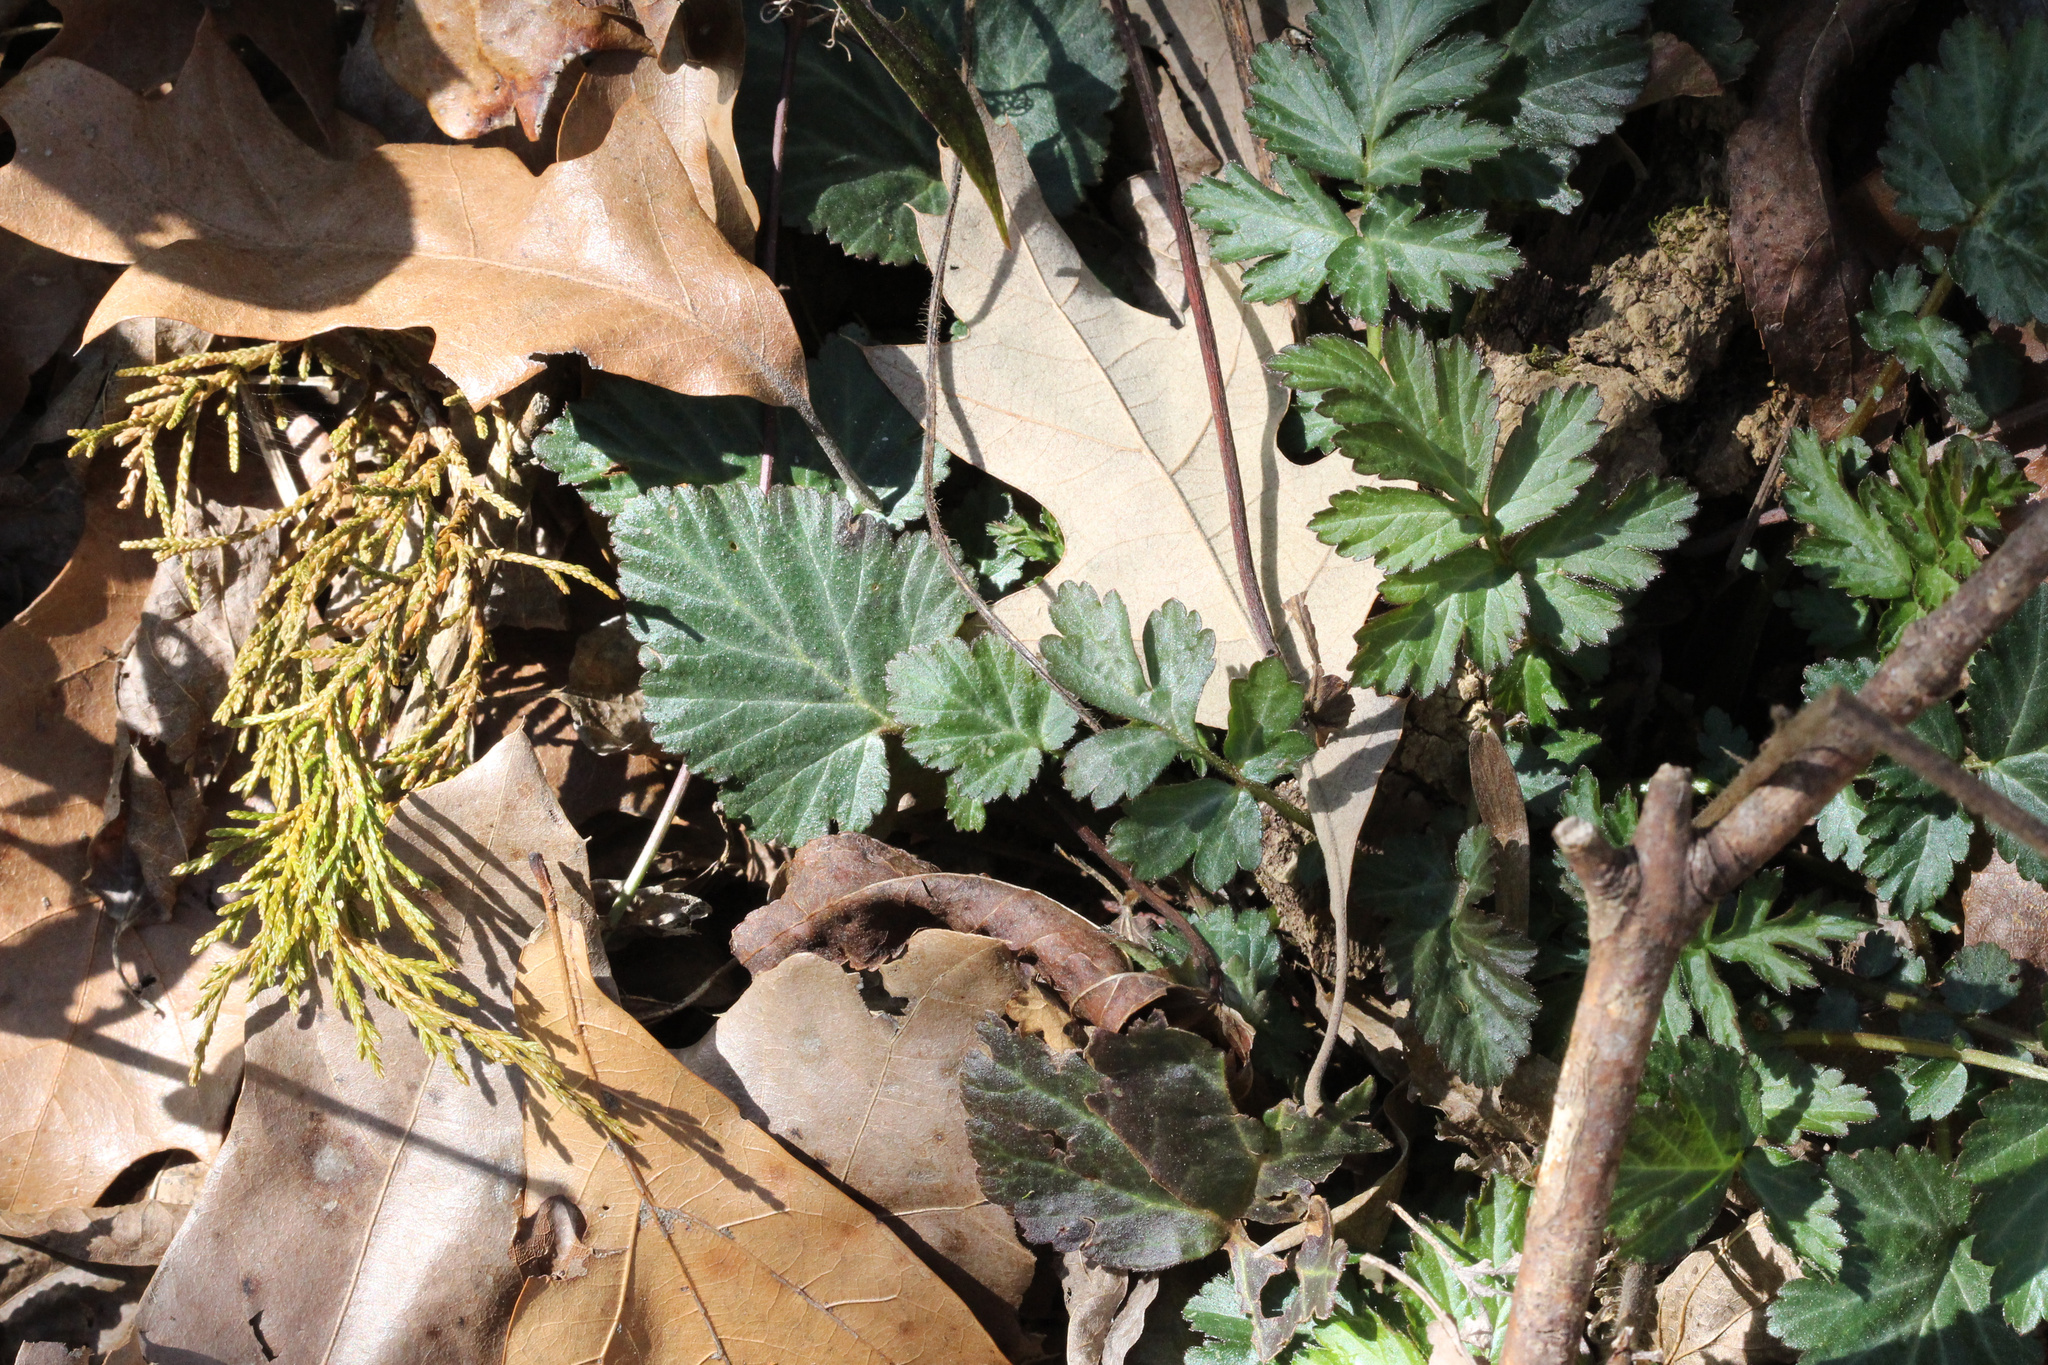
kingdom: Plantae
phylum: Tracheophyta
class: Magnoliopsida
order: Rosales
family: Rosaceae
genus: Geum
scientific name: Geum canadense
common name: White avens
